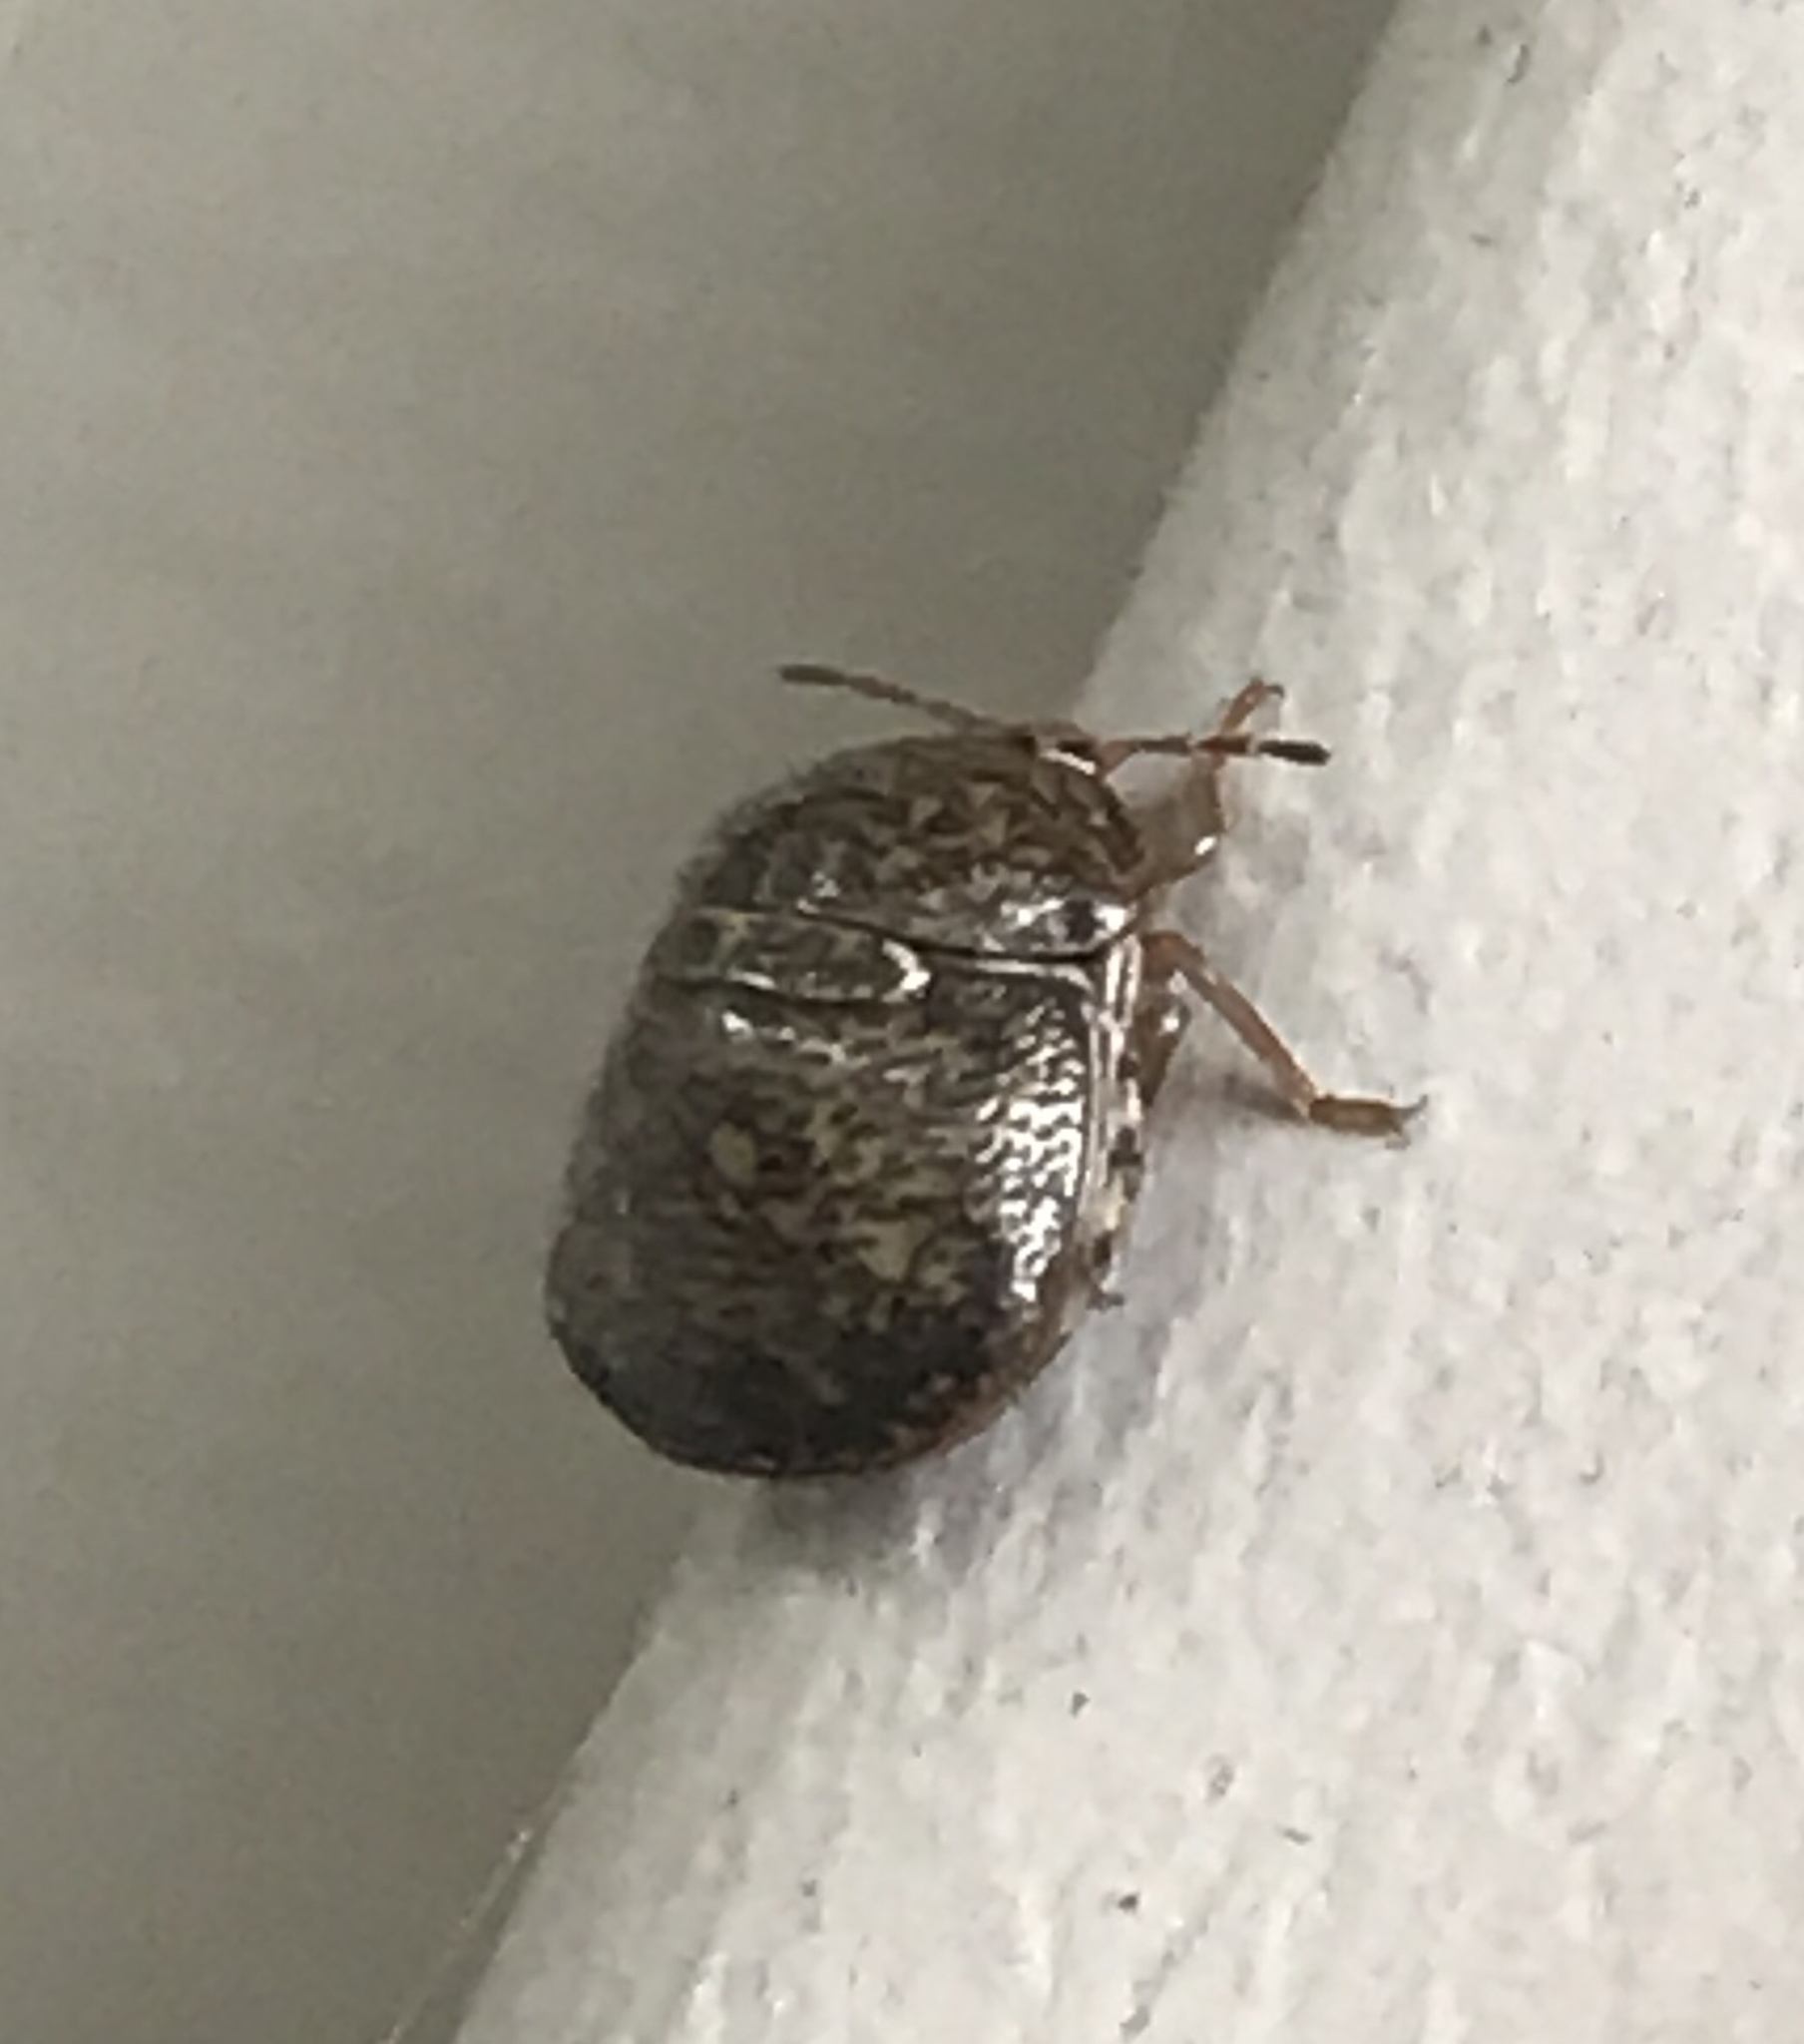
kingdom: Animalia
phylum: Arthropoda
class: Insecta
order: Hemiptera
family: Plataspidae
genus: Megacopta
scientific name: Megacopta cribraria
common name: Bean plataspid
